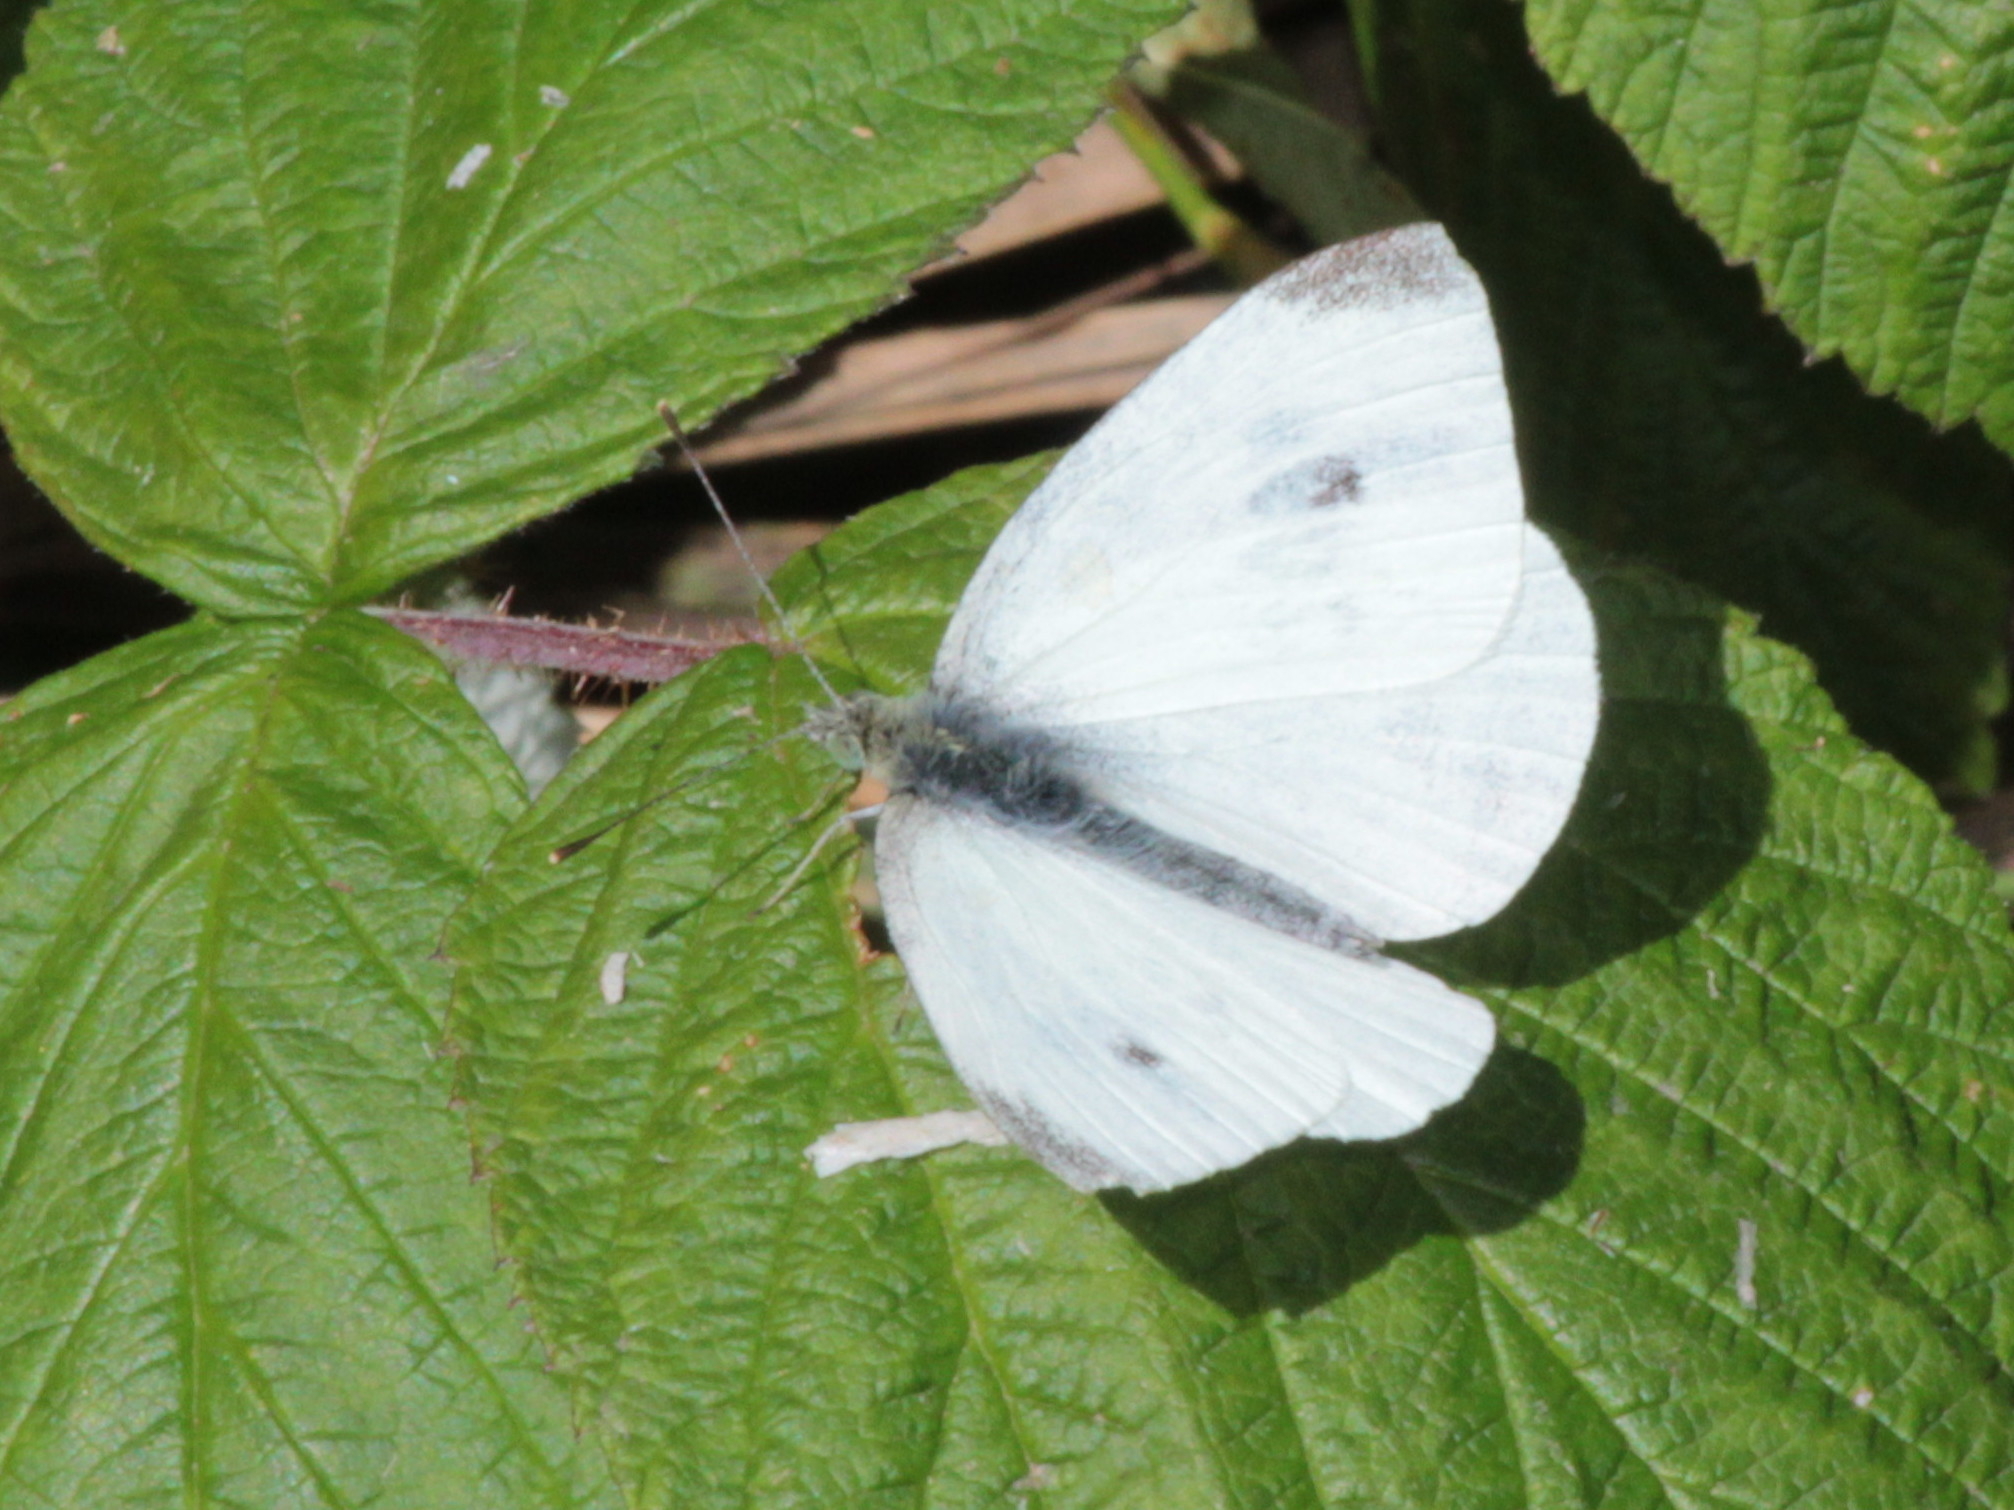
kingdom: Animalia
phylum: Arthropoda
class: Insecta
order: Lepidoptera
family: Pieridae
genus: Pieris
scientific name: Pieris rapae
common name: Small white
